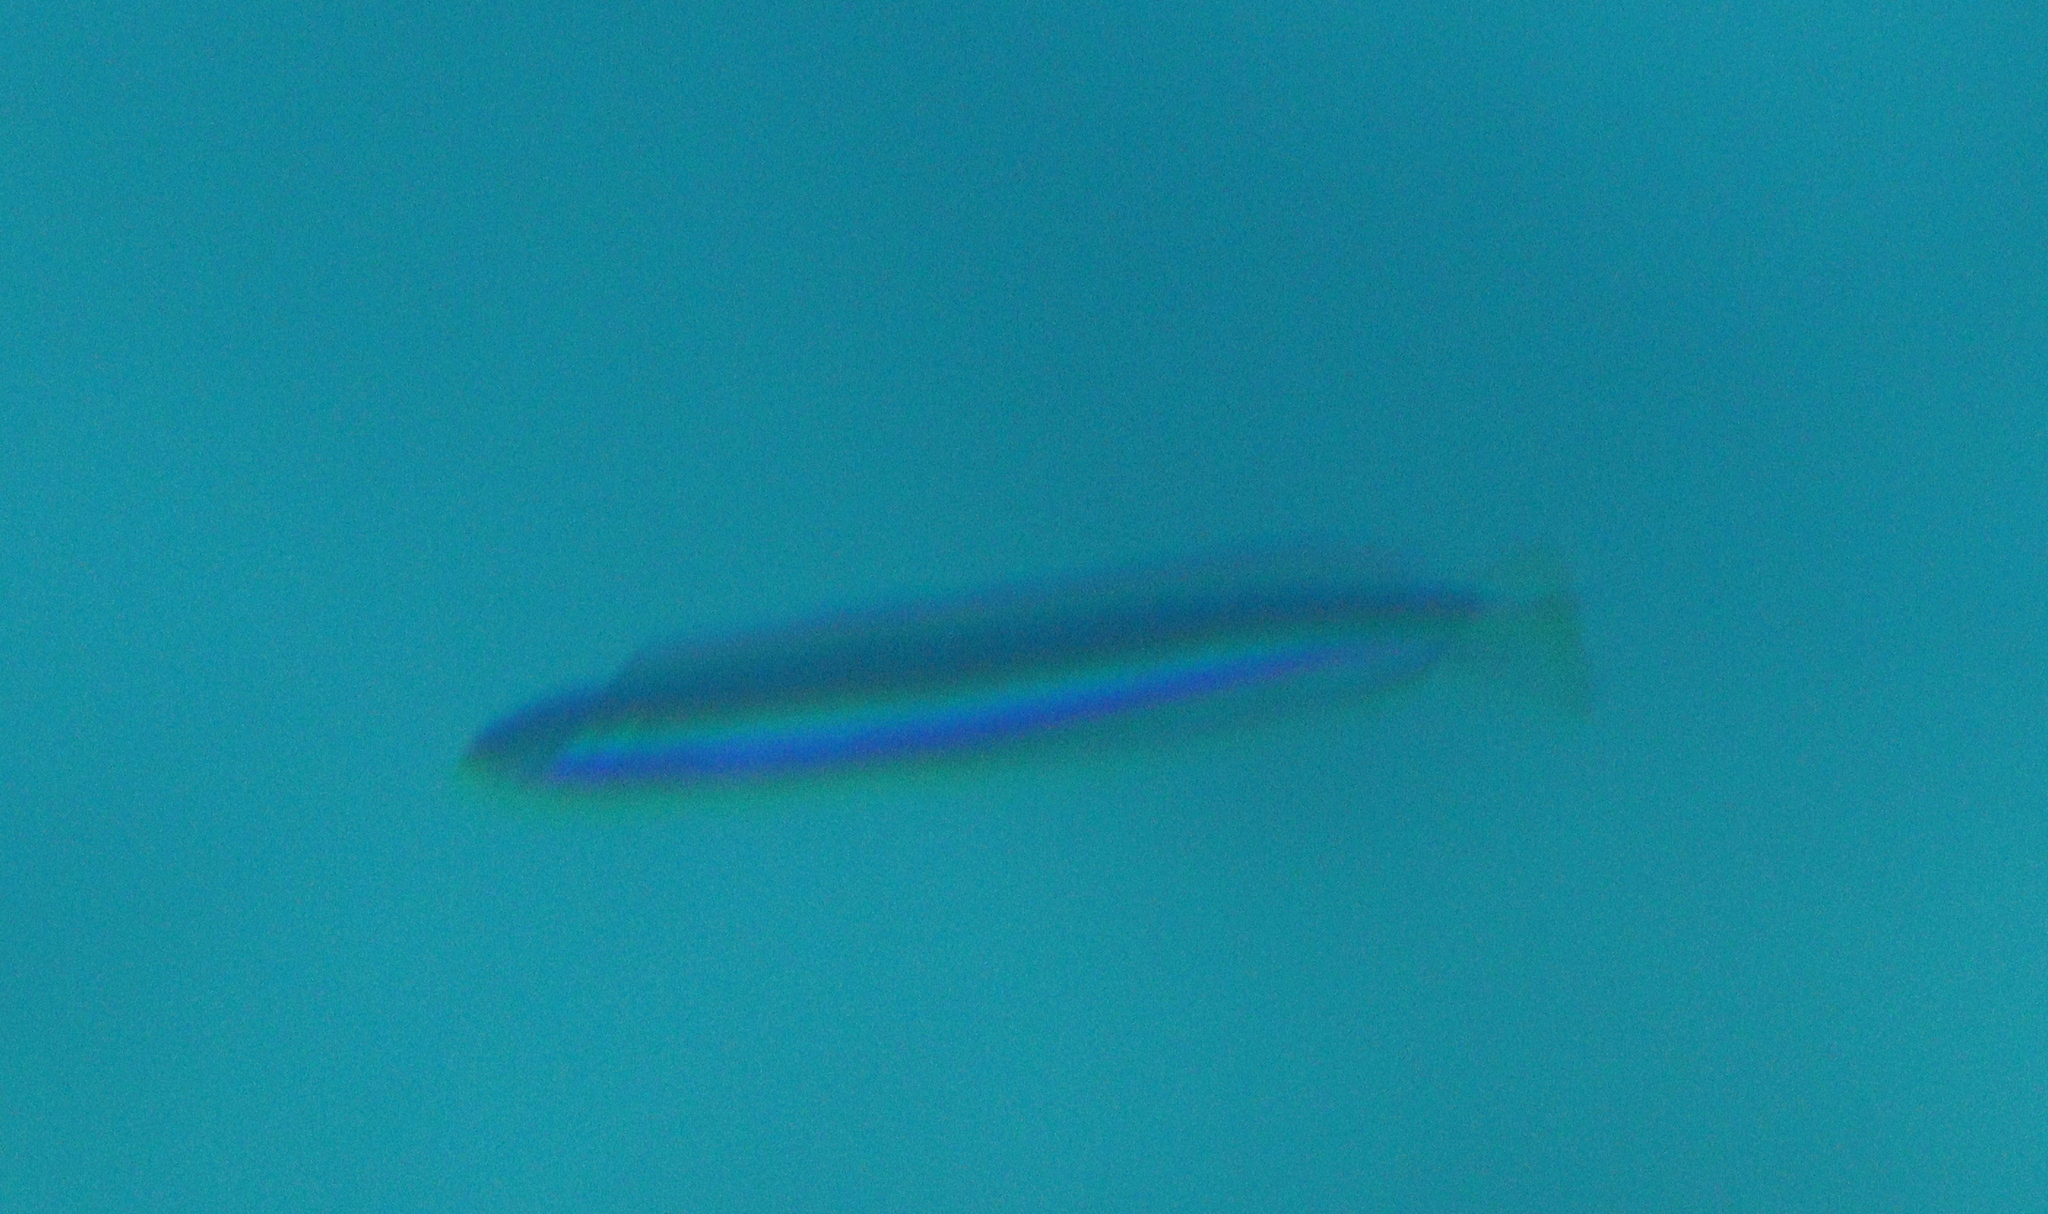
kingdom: Animalia
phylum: Chordata
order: Perciformes
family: Blenniidae
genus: Plagiotremus
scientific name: Plagiotremus rhinorhynchos
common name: Bluestriped fangblenny
